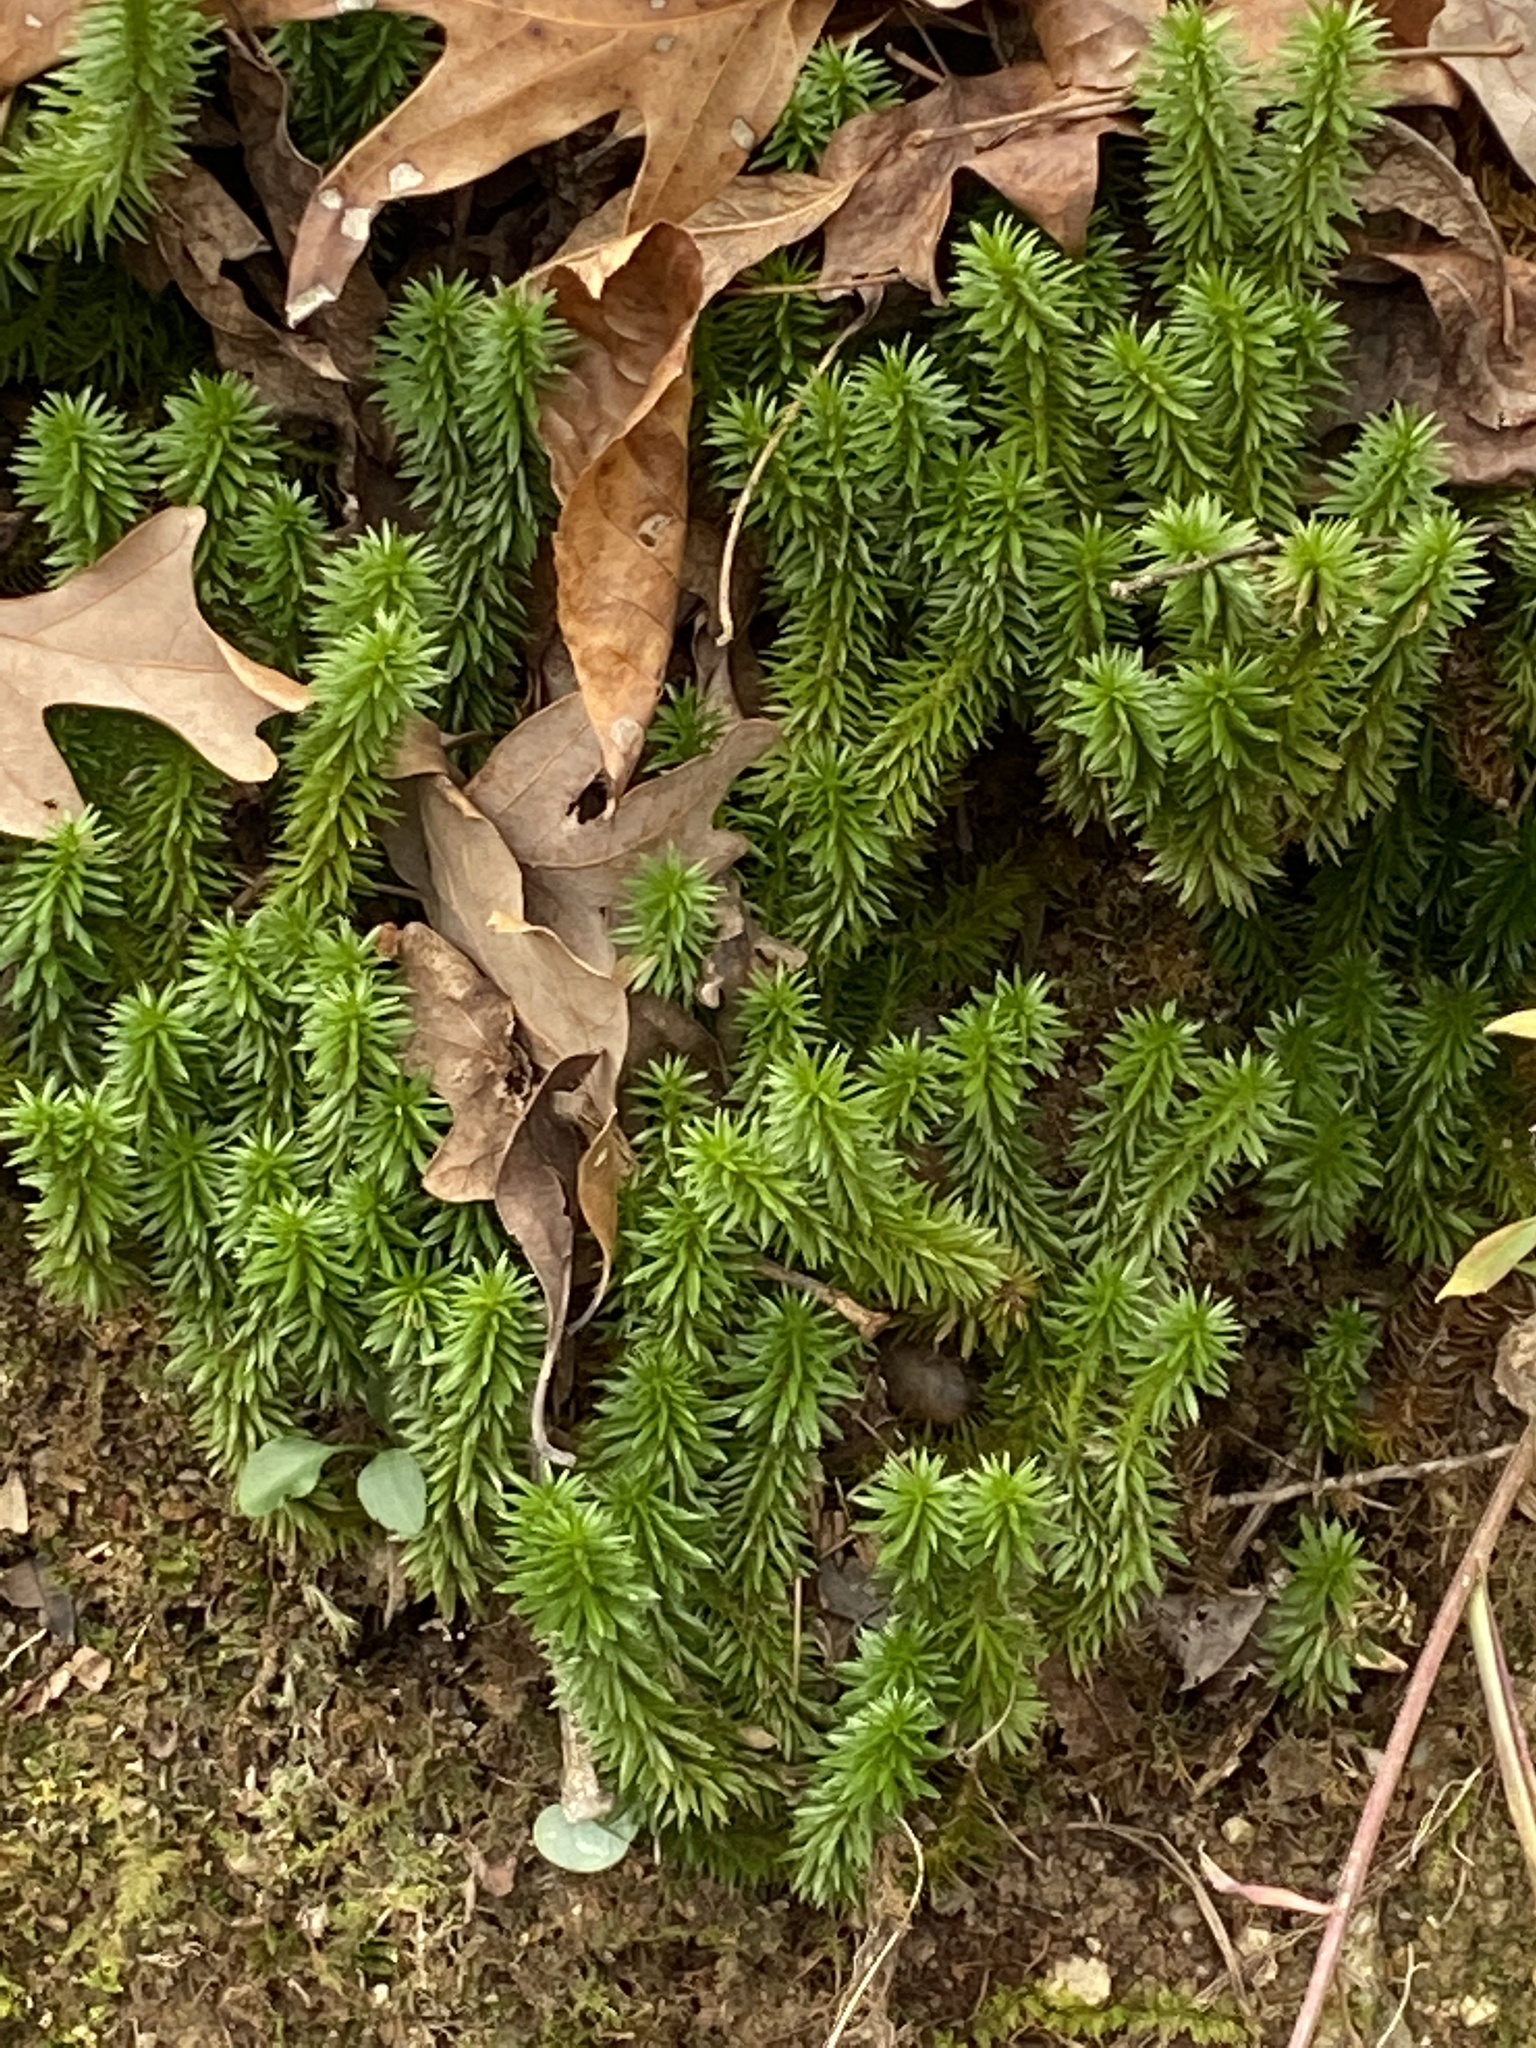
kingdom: Plantae
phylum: Tracheophyta
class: Lycopodiopsida
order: Lycopodiales
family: Lycopodiaceae
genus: Huperzia
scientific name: Huperzia lucidula
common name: Shining clubmoss
